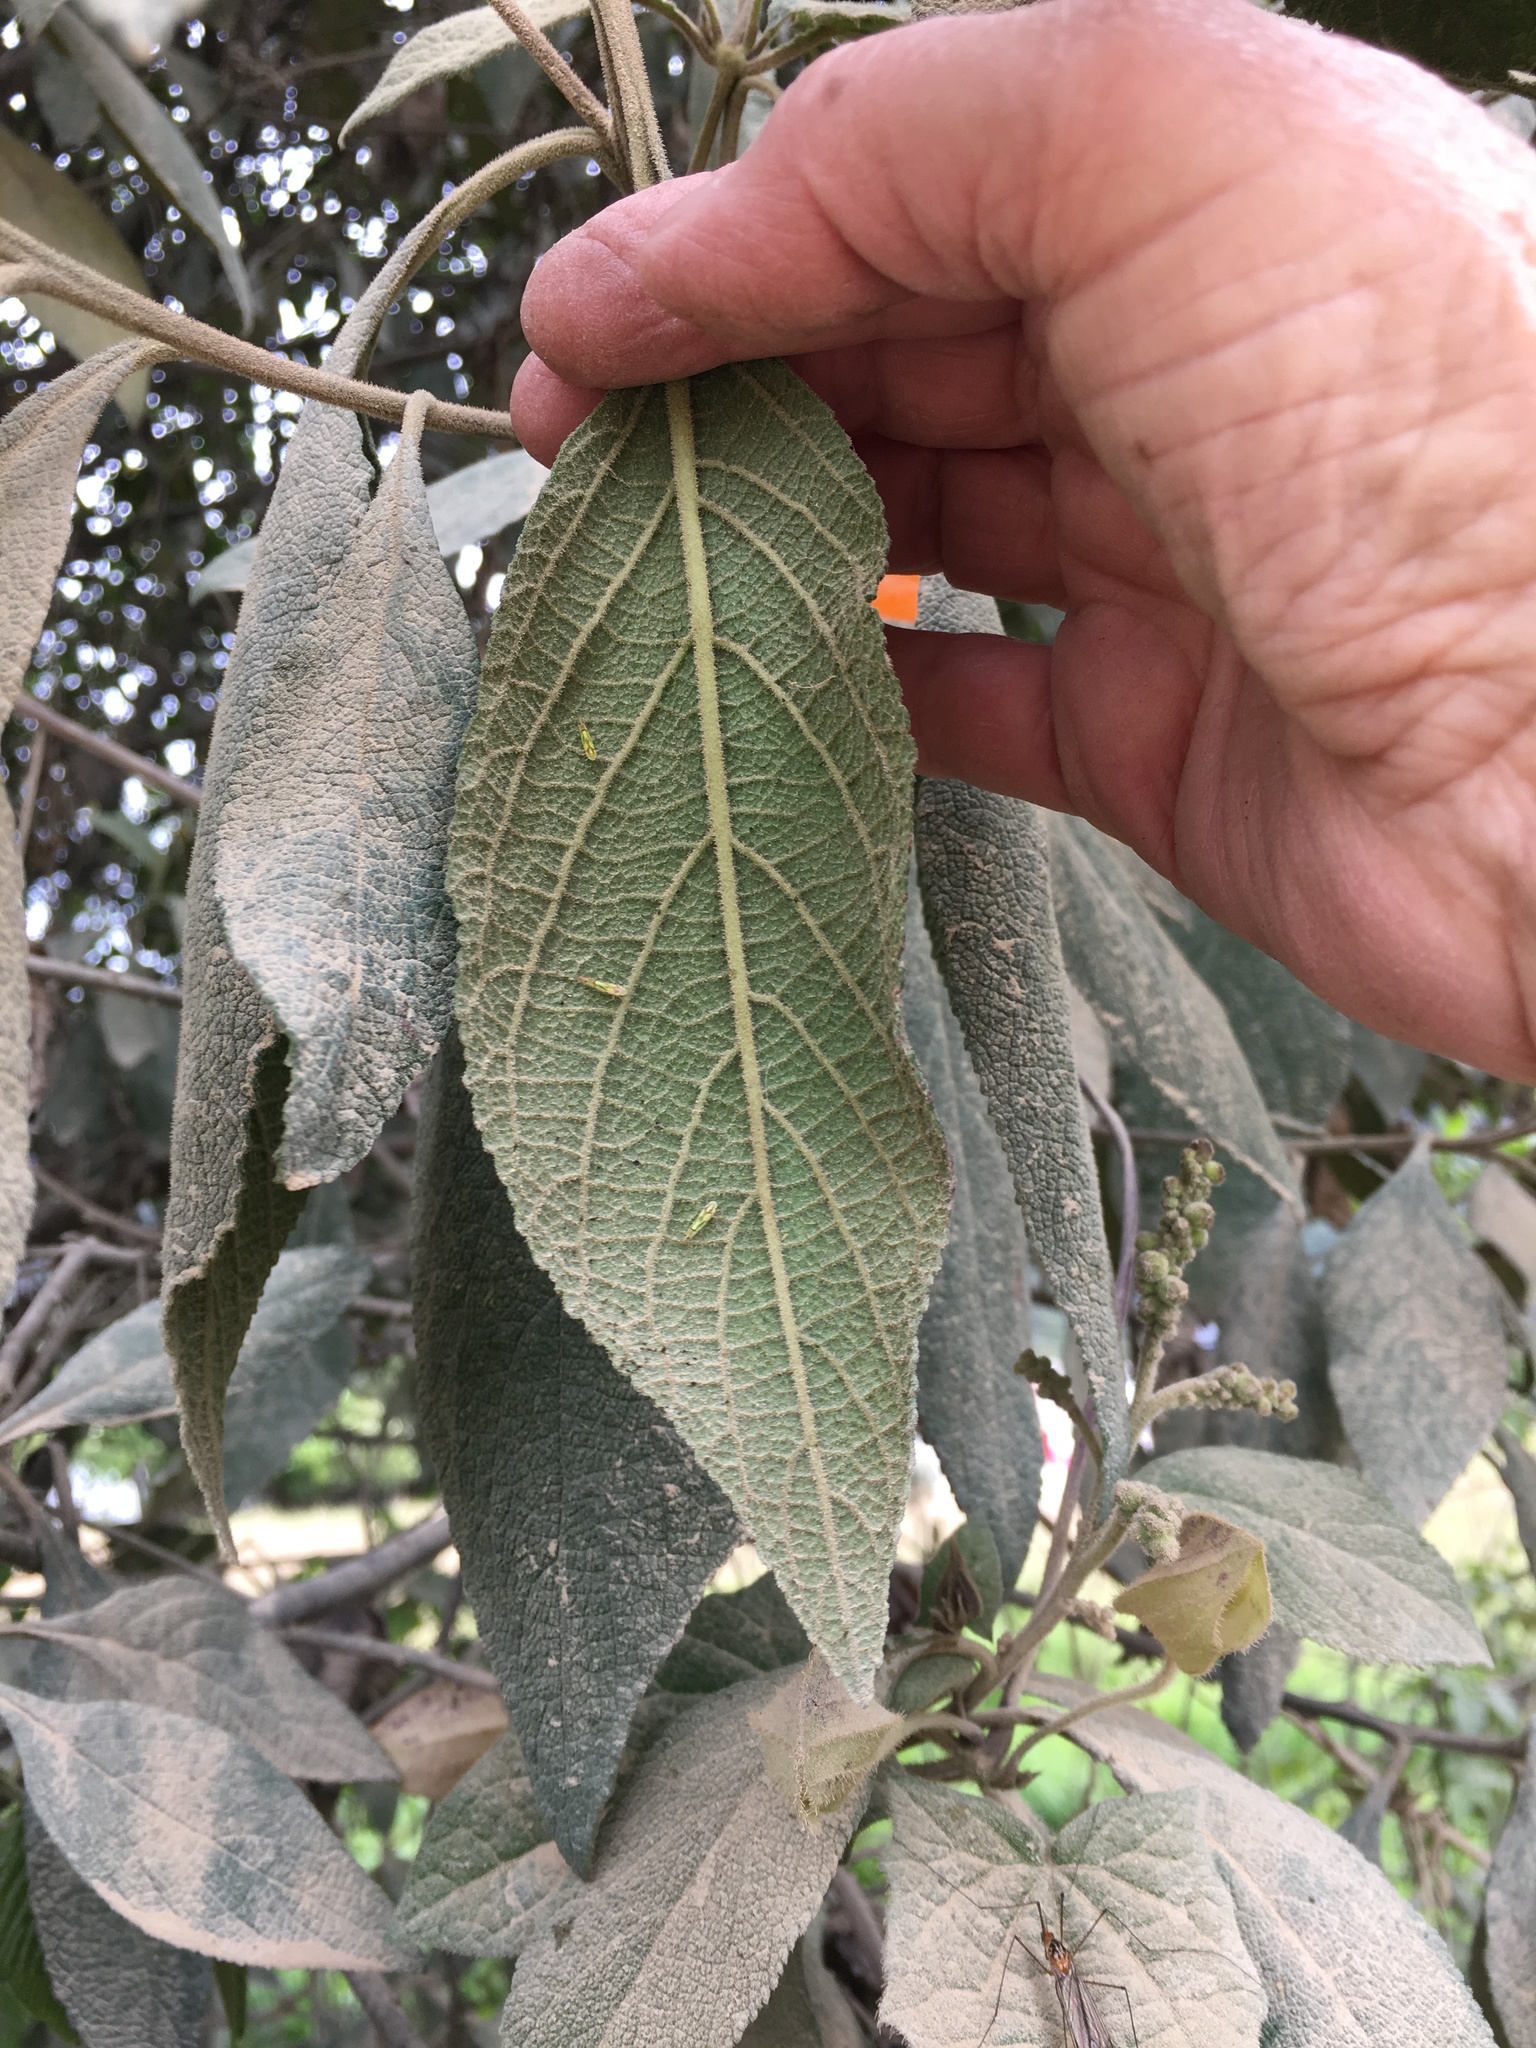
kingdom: Plantae
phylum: Tracheophyta
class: Magnoliopsida
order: Boraginales
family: Cordiaceae
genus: Varronia
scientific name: Varronia cylindrostachya
